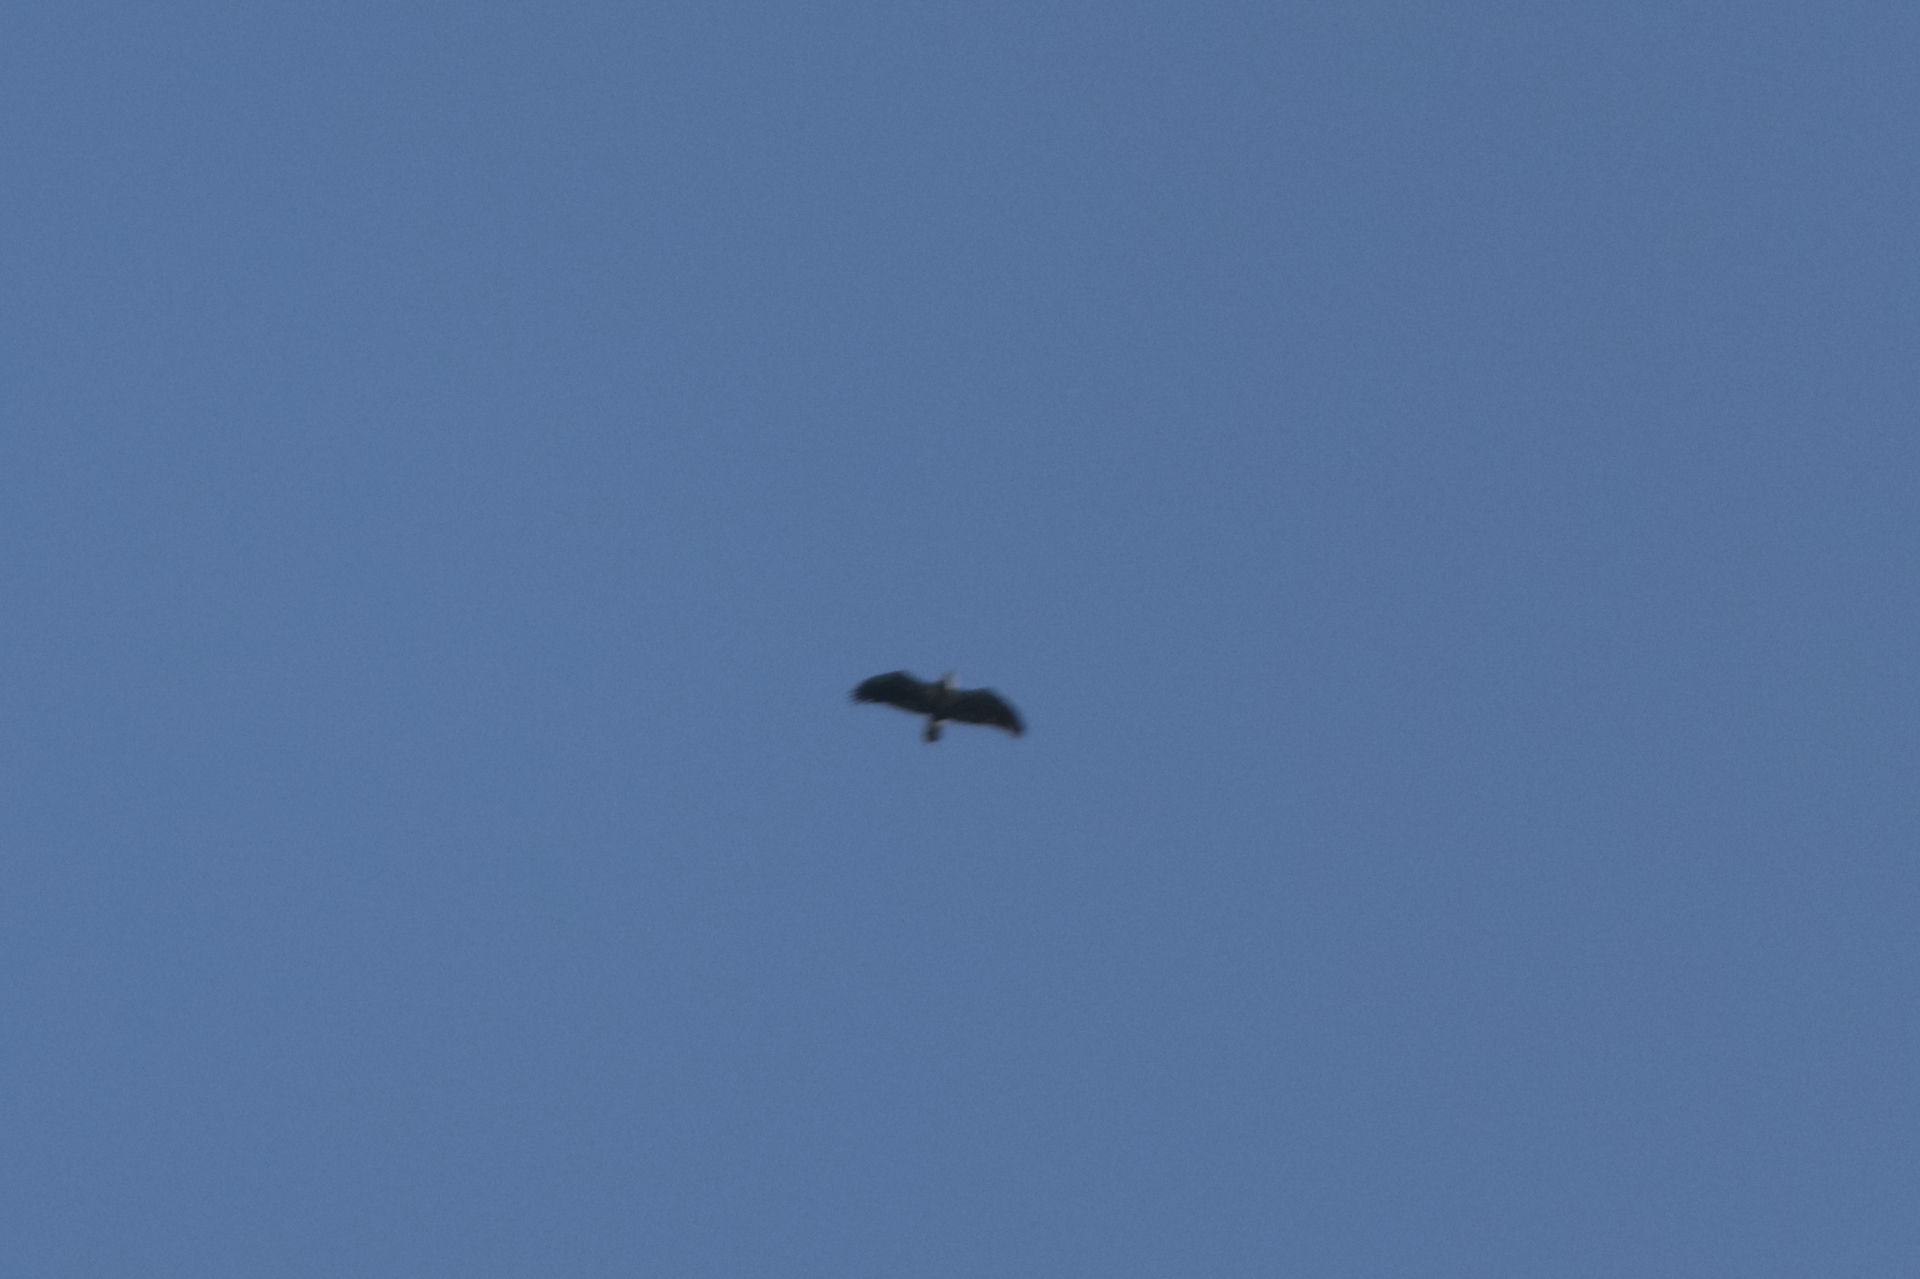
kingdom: Animalia
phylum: Chordata
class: Aves
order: Accipitriformes
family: Accipitridae
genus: Haliaeetus
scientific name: Haliaeetus leucocephalus
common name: Bald eagle
